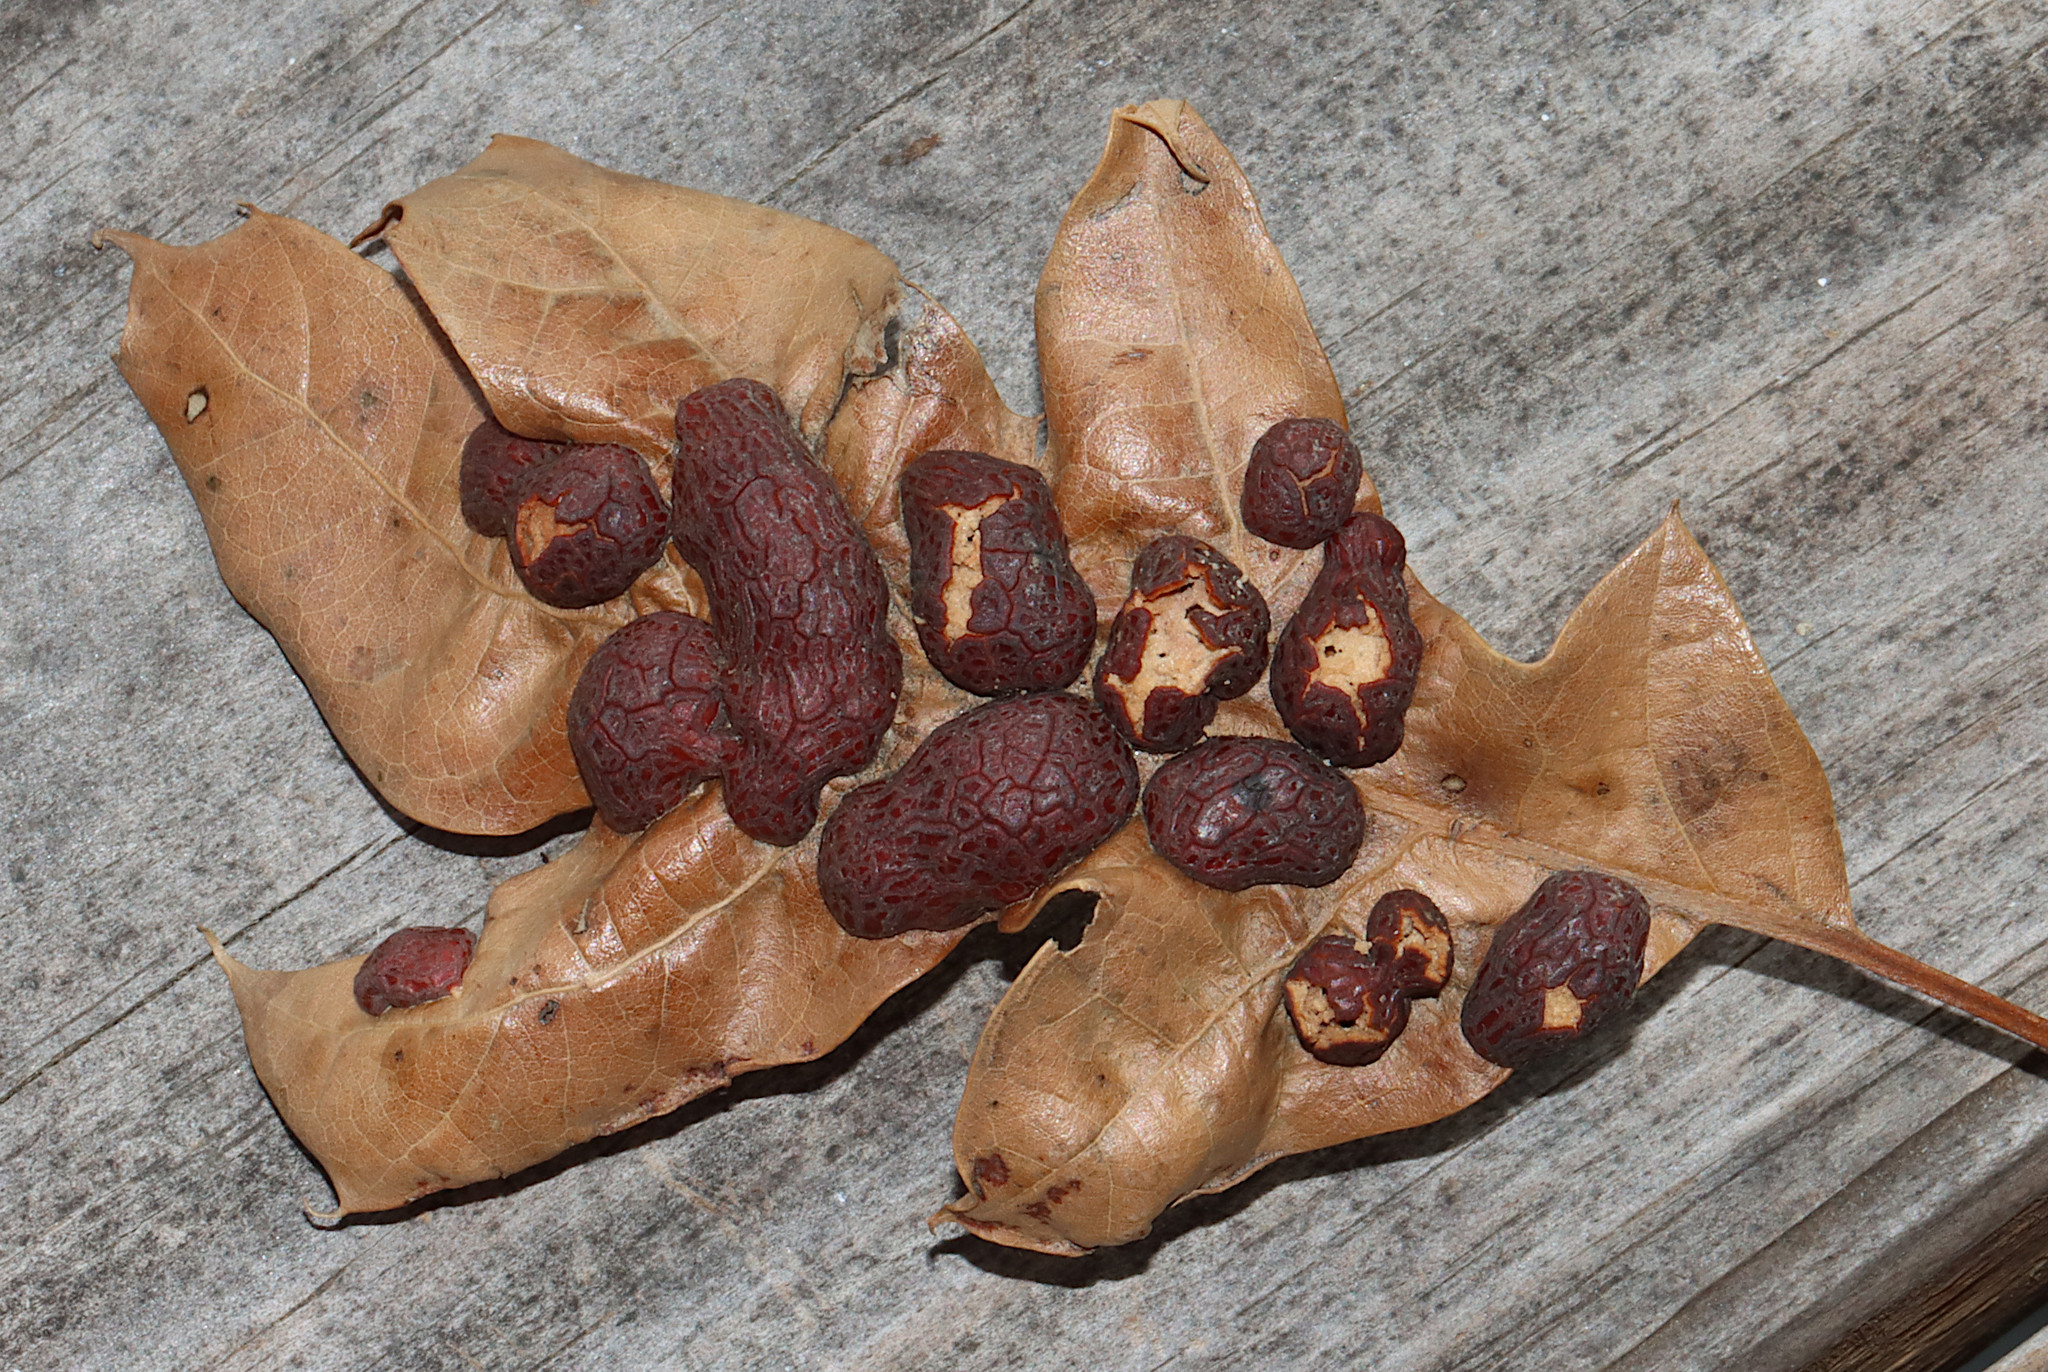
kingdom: Animalia
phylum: Arthropoda
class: Insecta
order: Diptera
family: Cecidomyiidae
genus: Polystepha
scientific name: Polystepha pilulae
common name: Oak leaf gall midge
